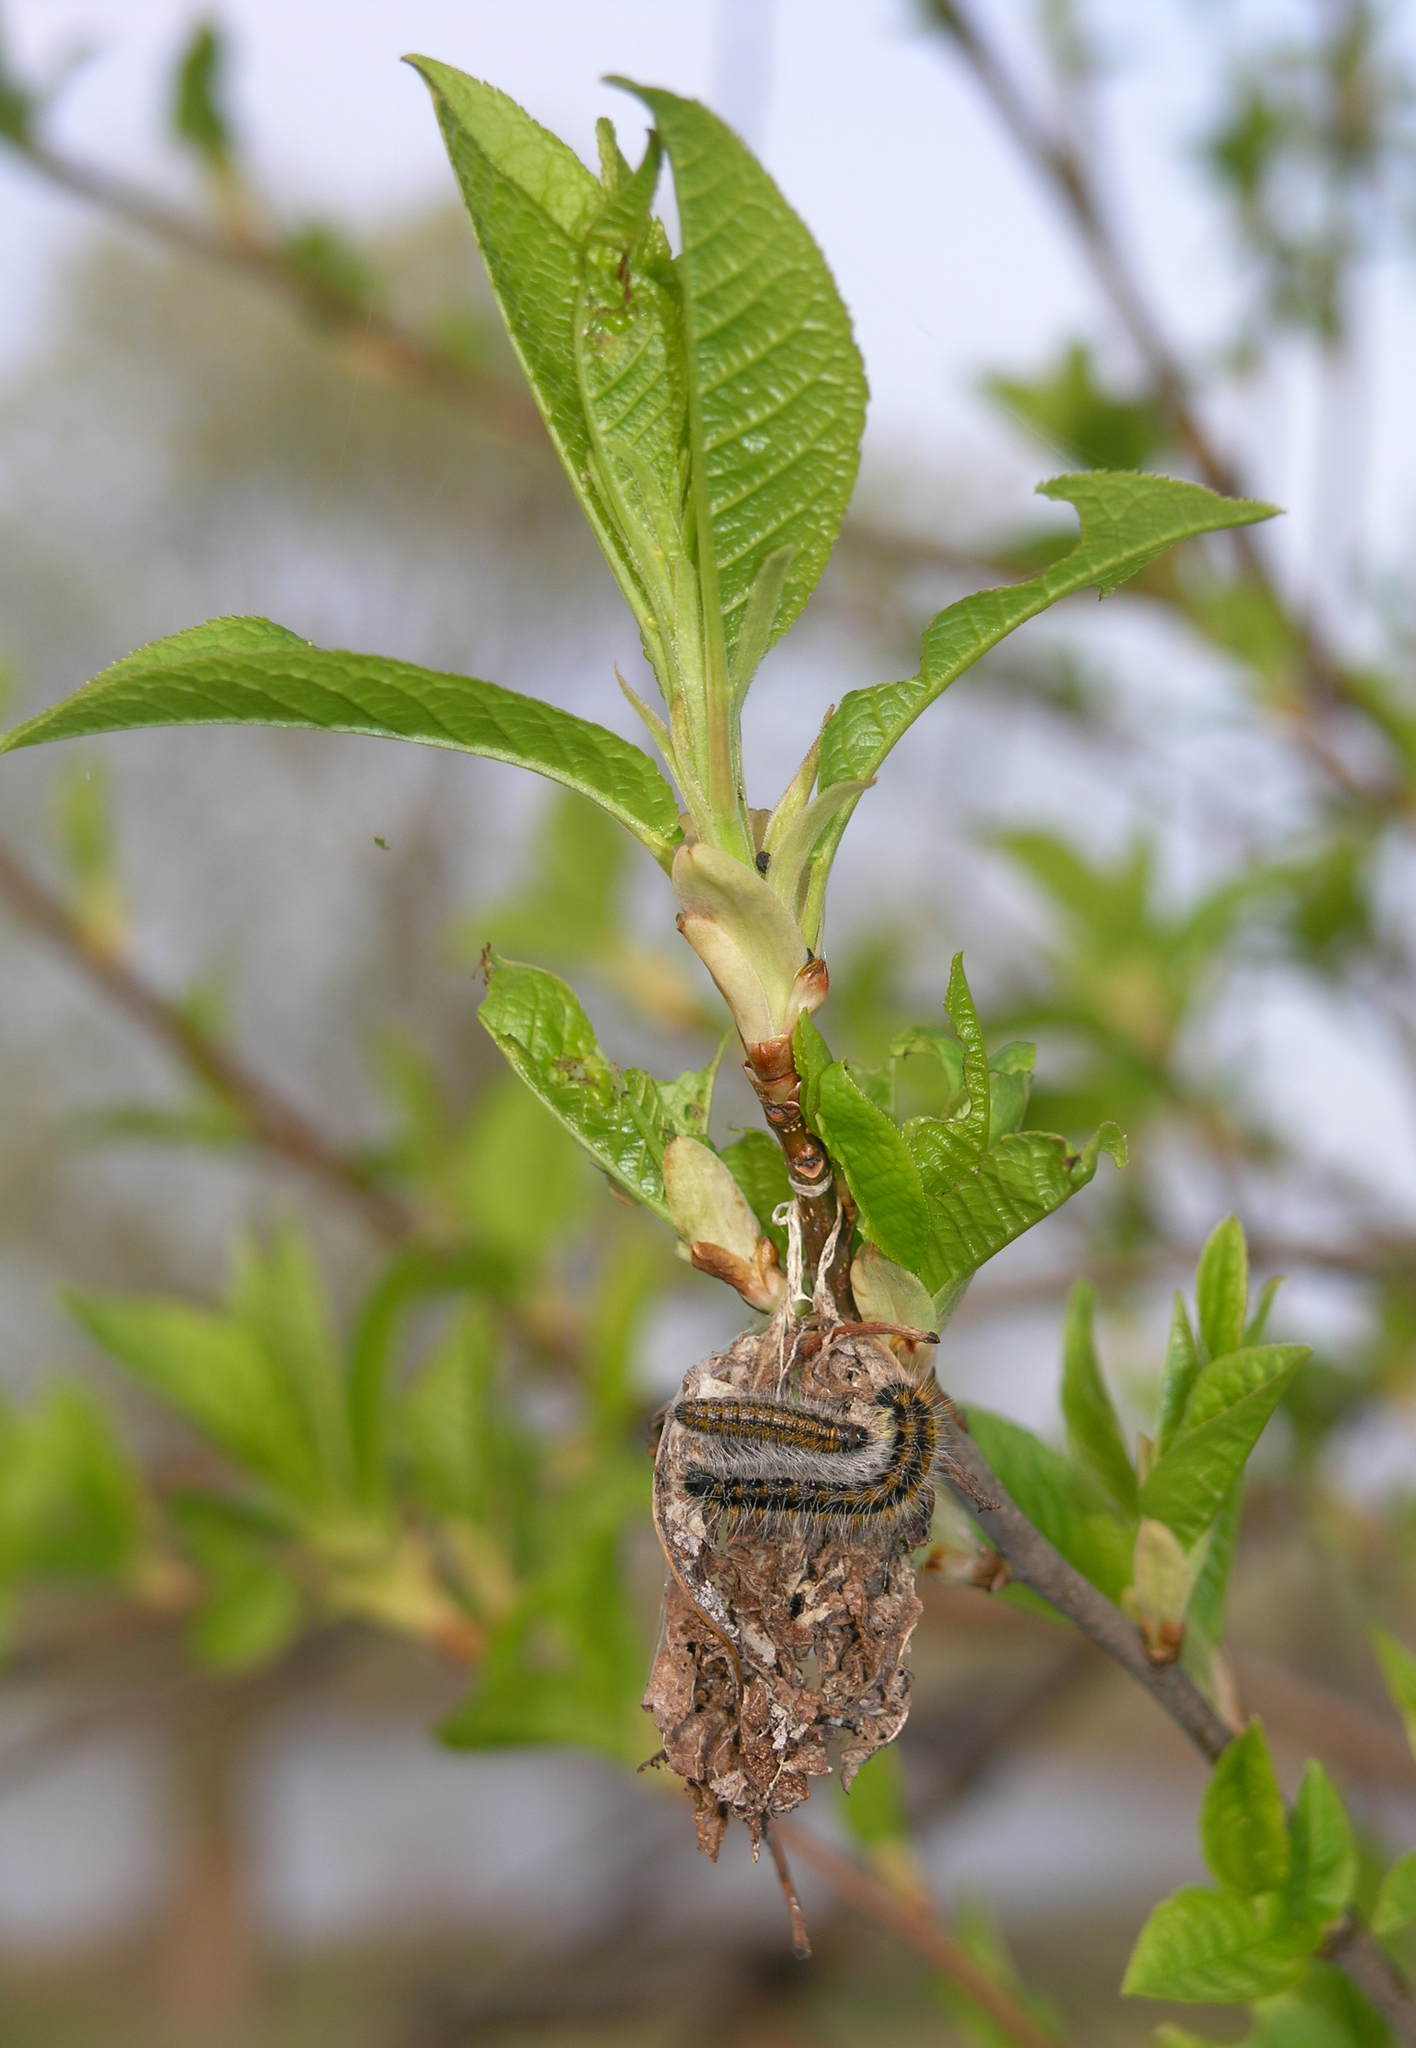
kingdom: Plantae
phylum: Tracheophyta
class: Magnoliopsida
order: Rosales
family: Rosaceae
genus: Prunus
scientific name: Prunus padus
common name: Bird cherry
